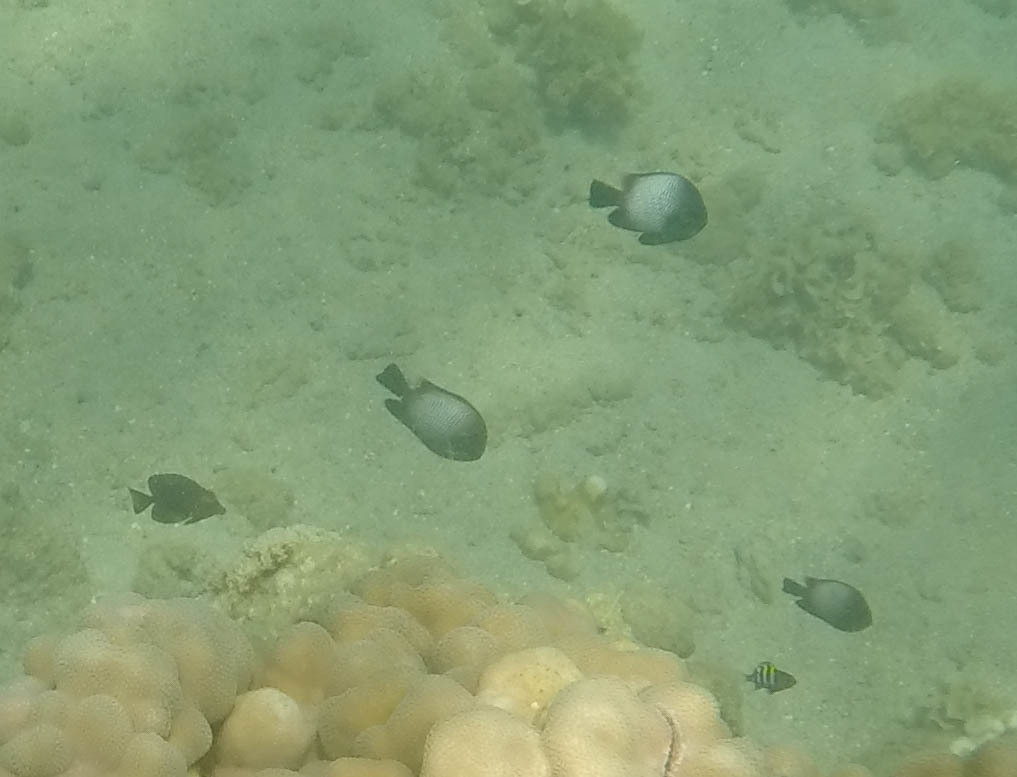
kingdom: Animalia
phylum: Chordata
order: Perciformes
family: Pomacentridae
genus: Dascyllus
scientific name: Dascyllus albisella
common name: Hawaiian dascyllus
